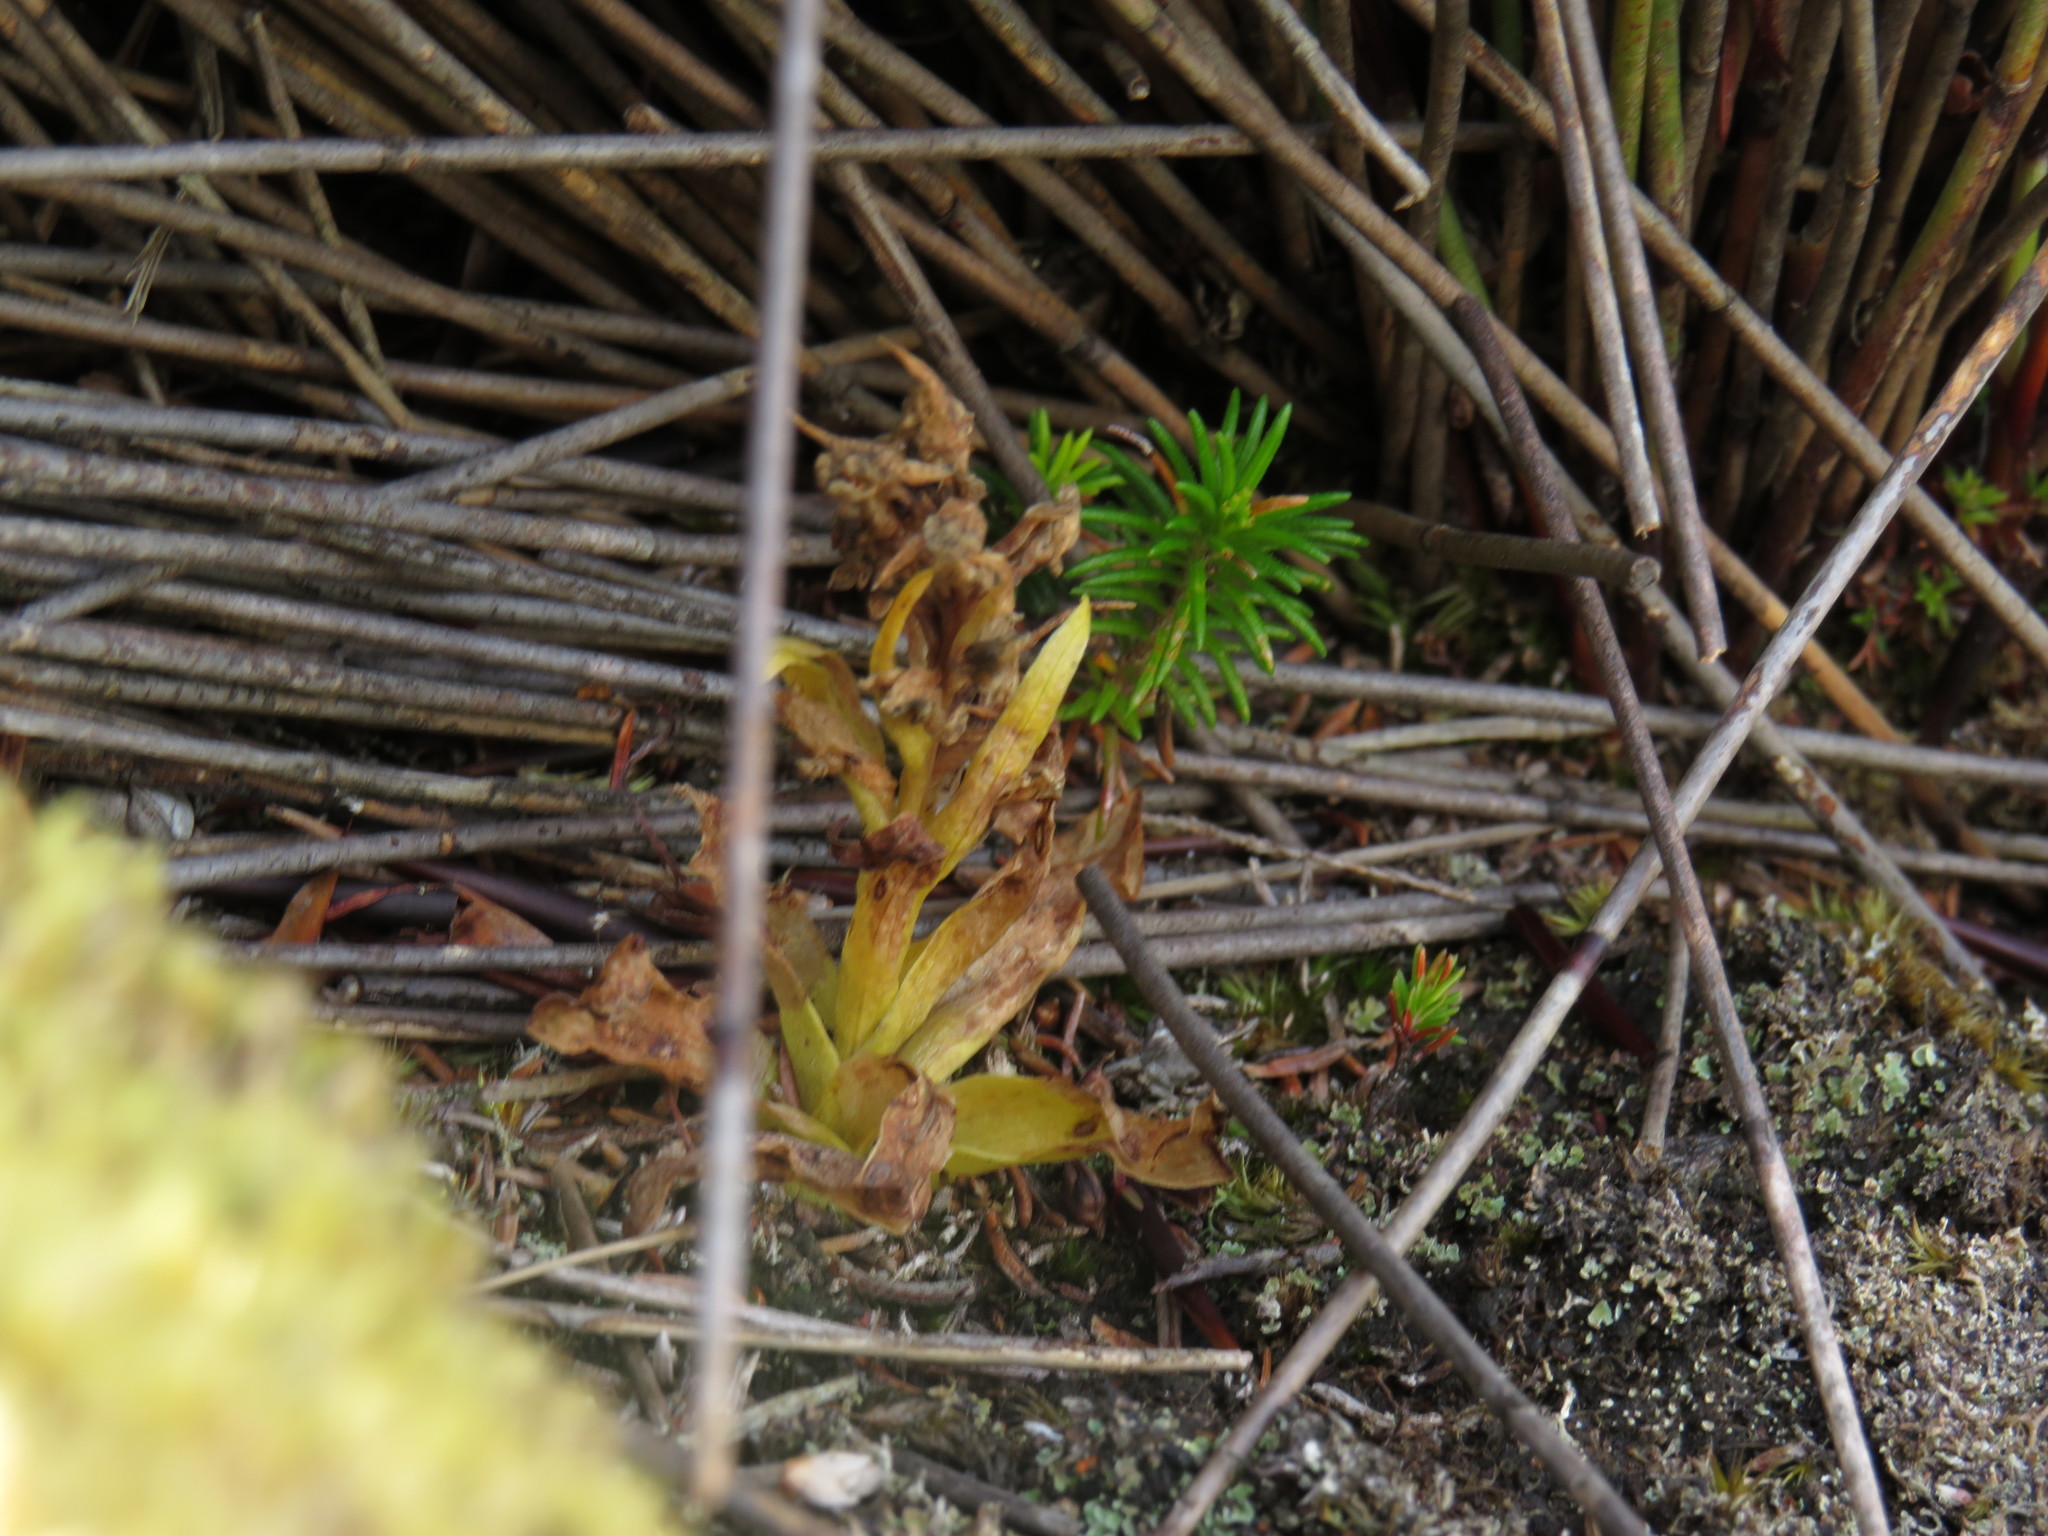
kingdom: Plantae
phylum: Tracheophyta
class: Liliopsida
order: Asparagales
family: Orchidaceae
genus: Disa
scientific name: Disa cylindrica
